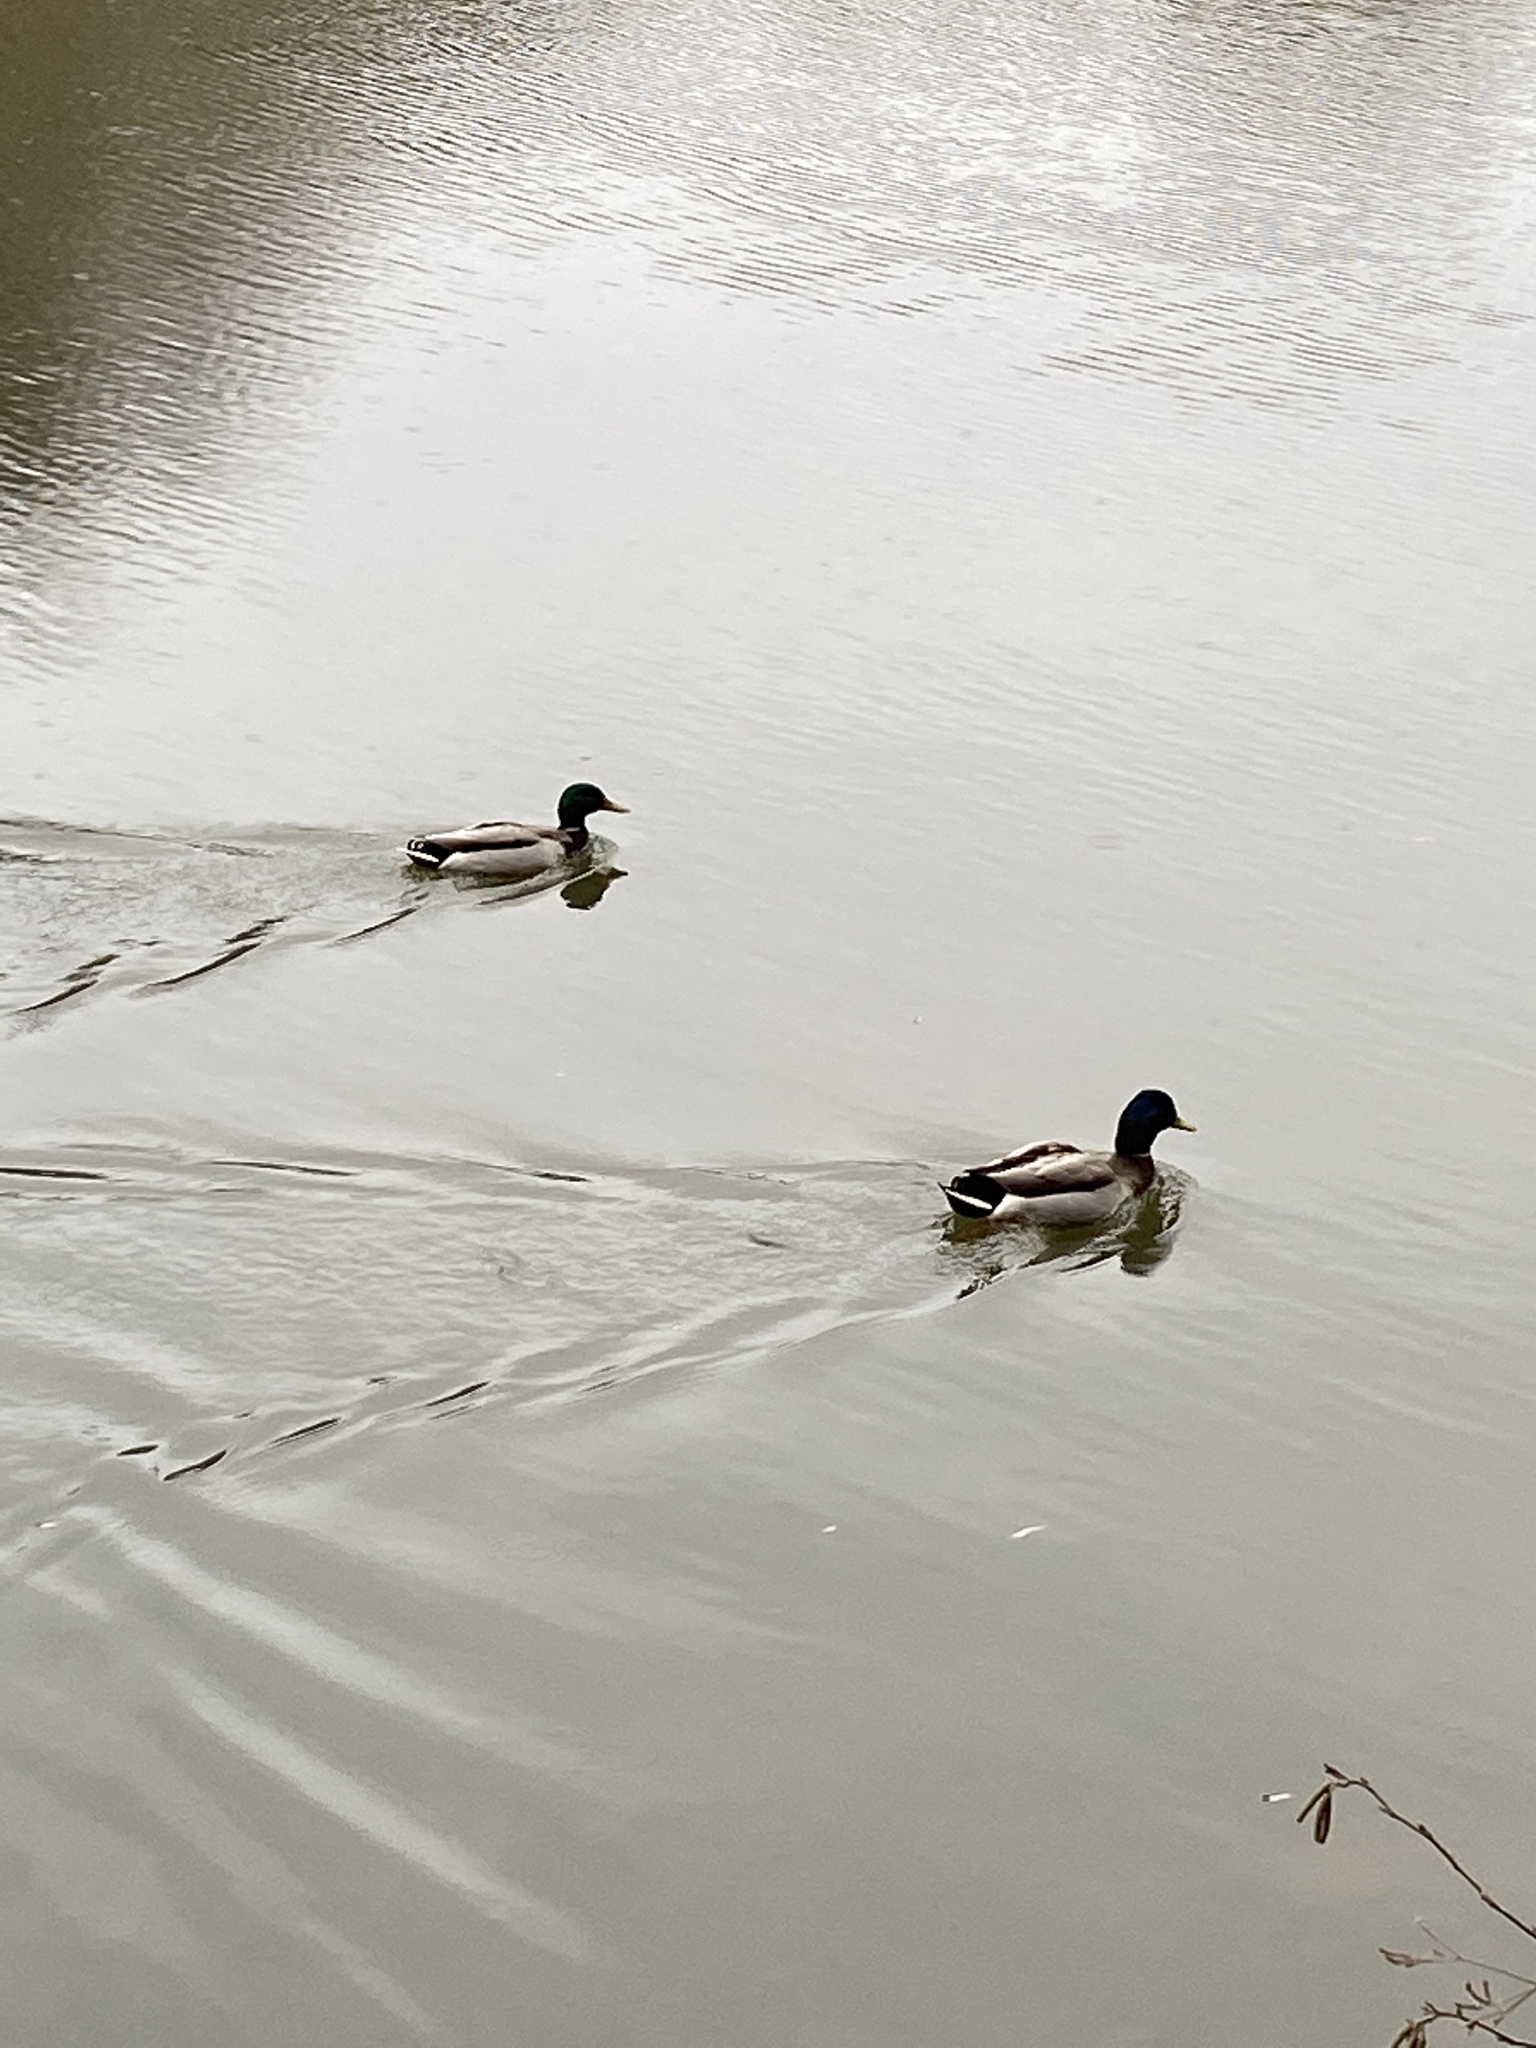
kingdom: Animalia
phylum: Chordata
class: Aves
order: Anseriformes
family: Anatidae
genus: Anas
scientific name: Anas platyrhynchos
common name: Mallard
